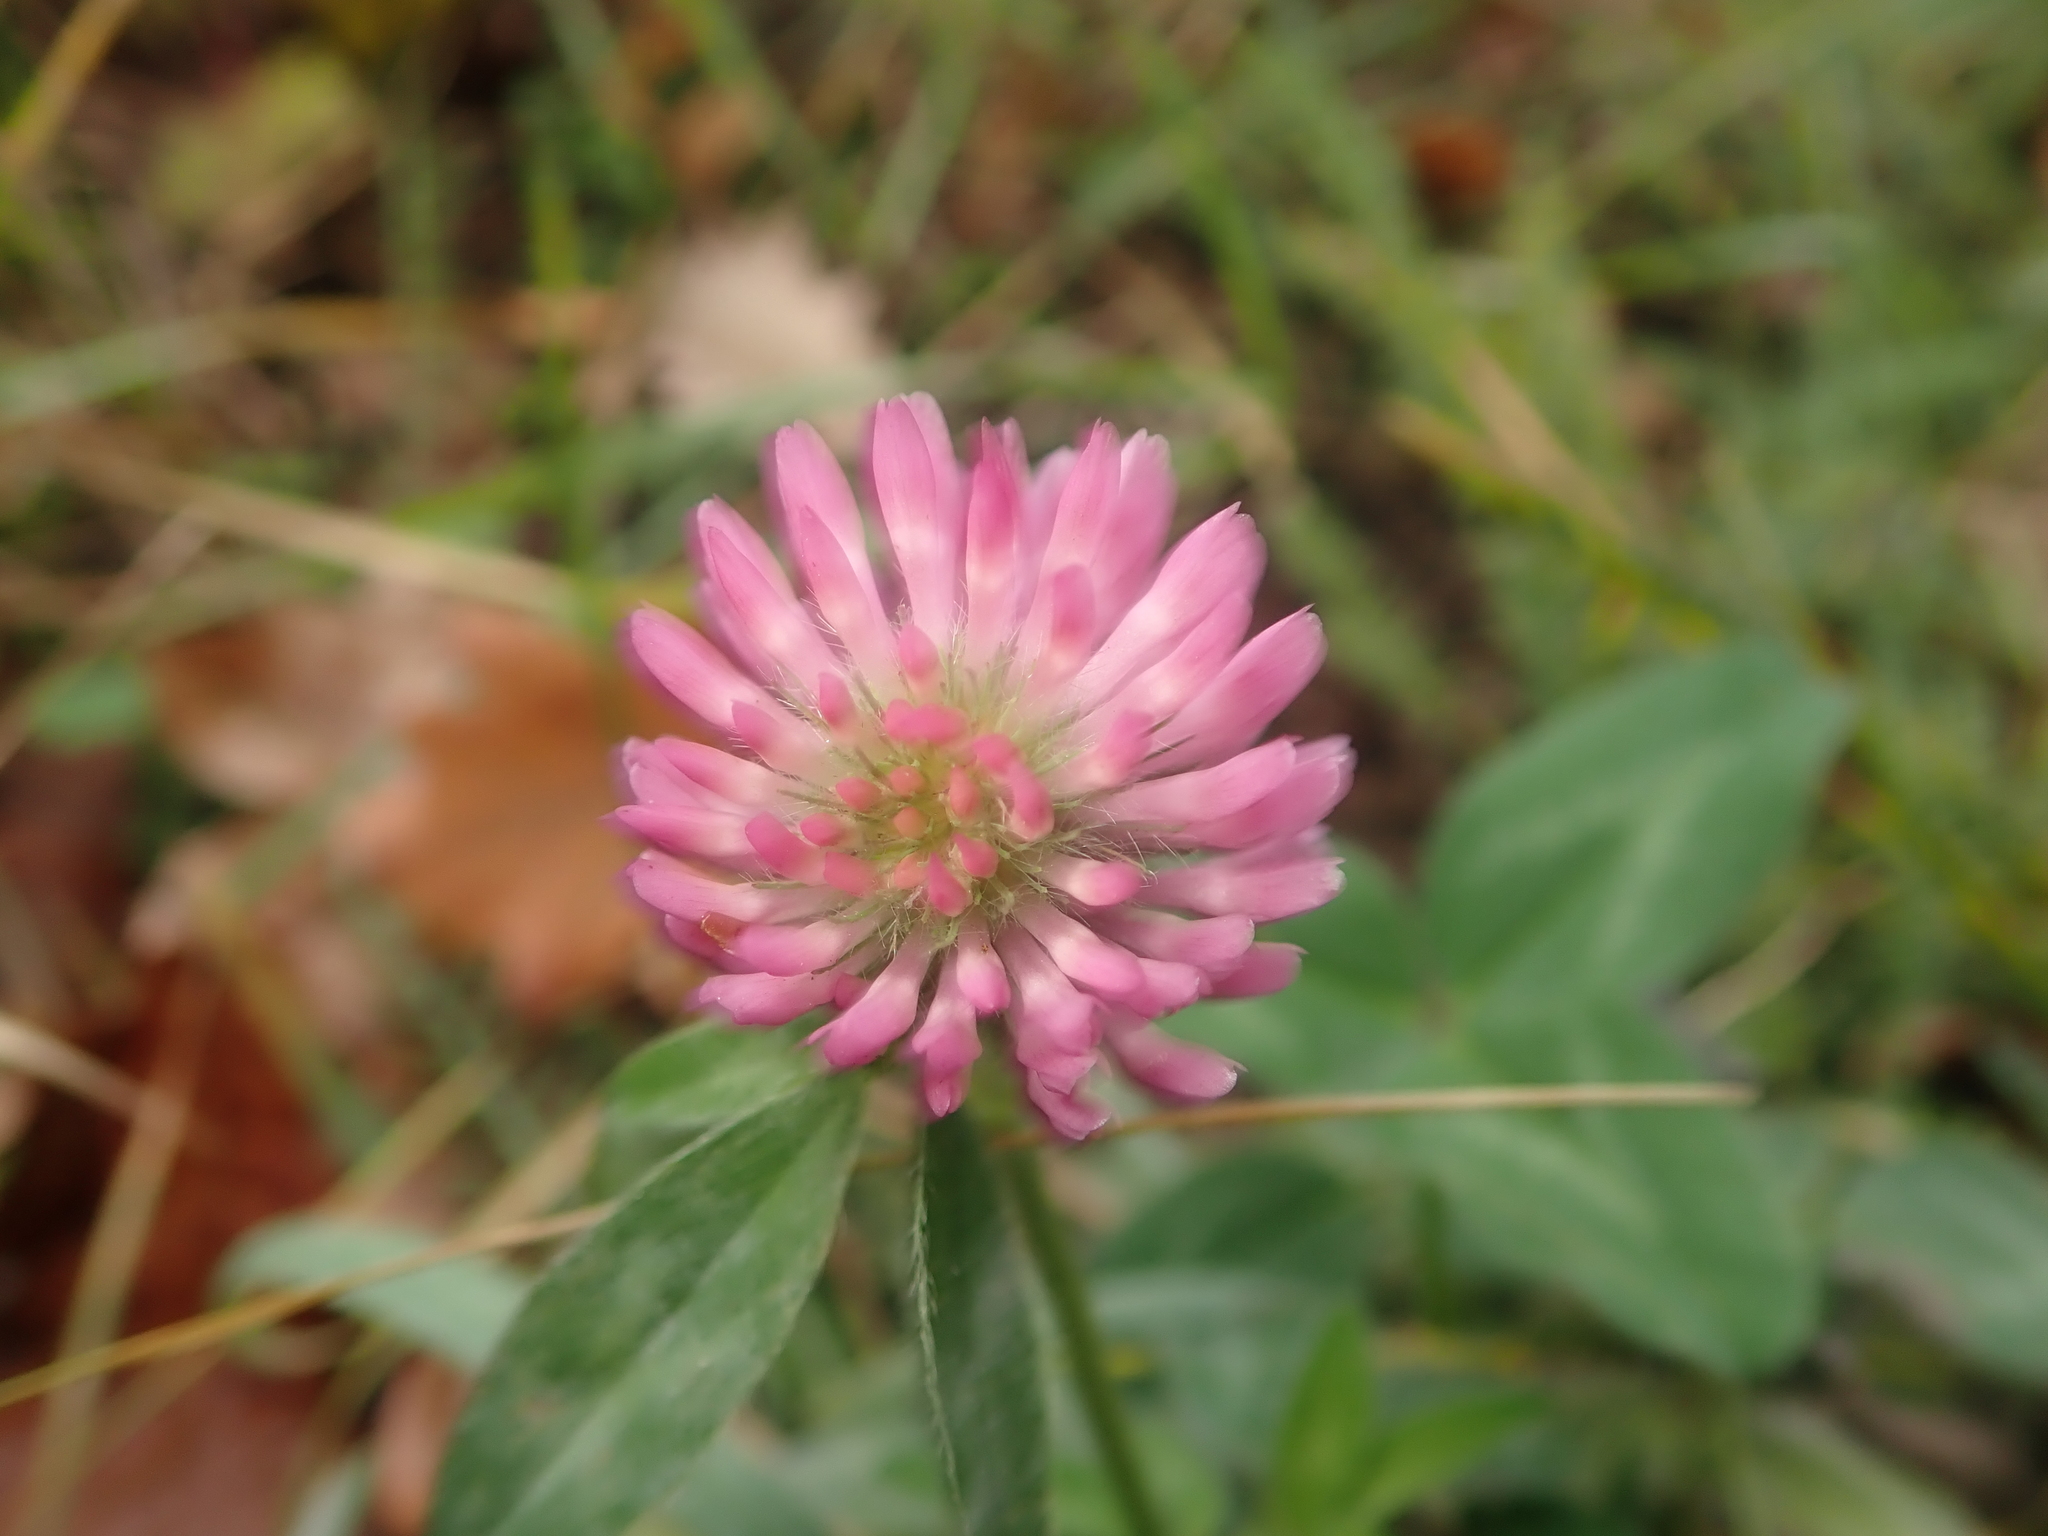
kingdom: Plantae
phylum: Tracheophyta
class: Magnoliopsida
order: Fabales
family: Fabaceae
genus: Trifolium
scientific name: Trifolium pratense
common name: Red clover
